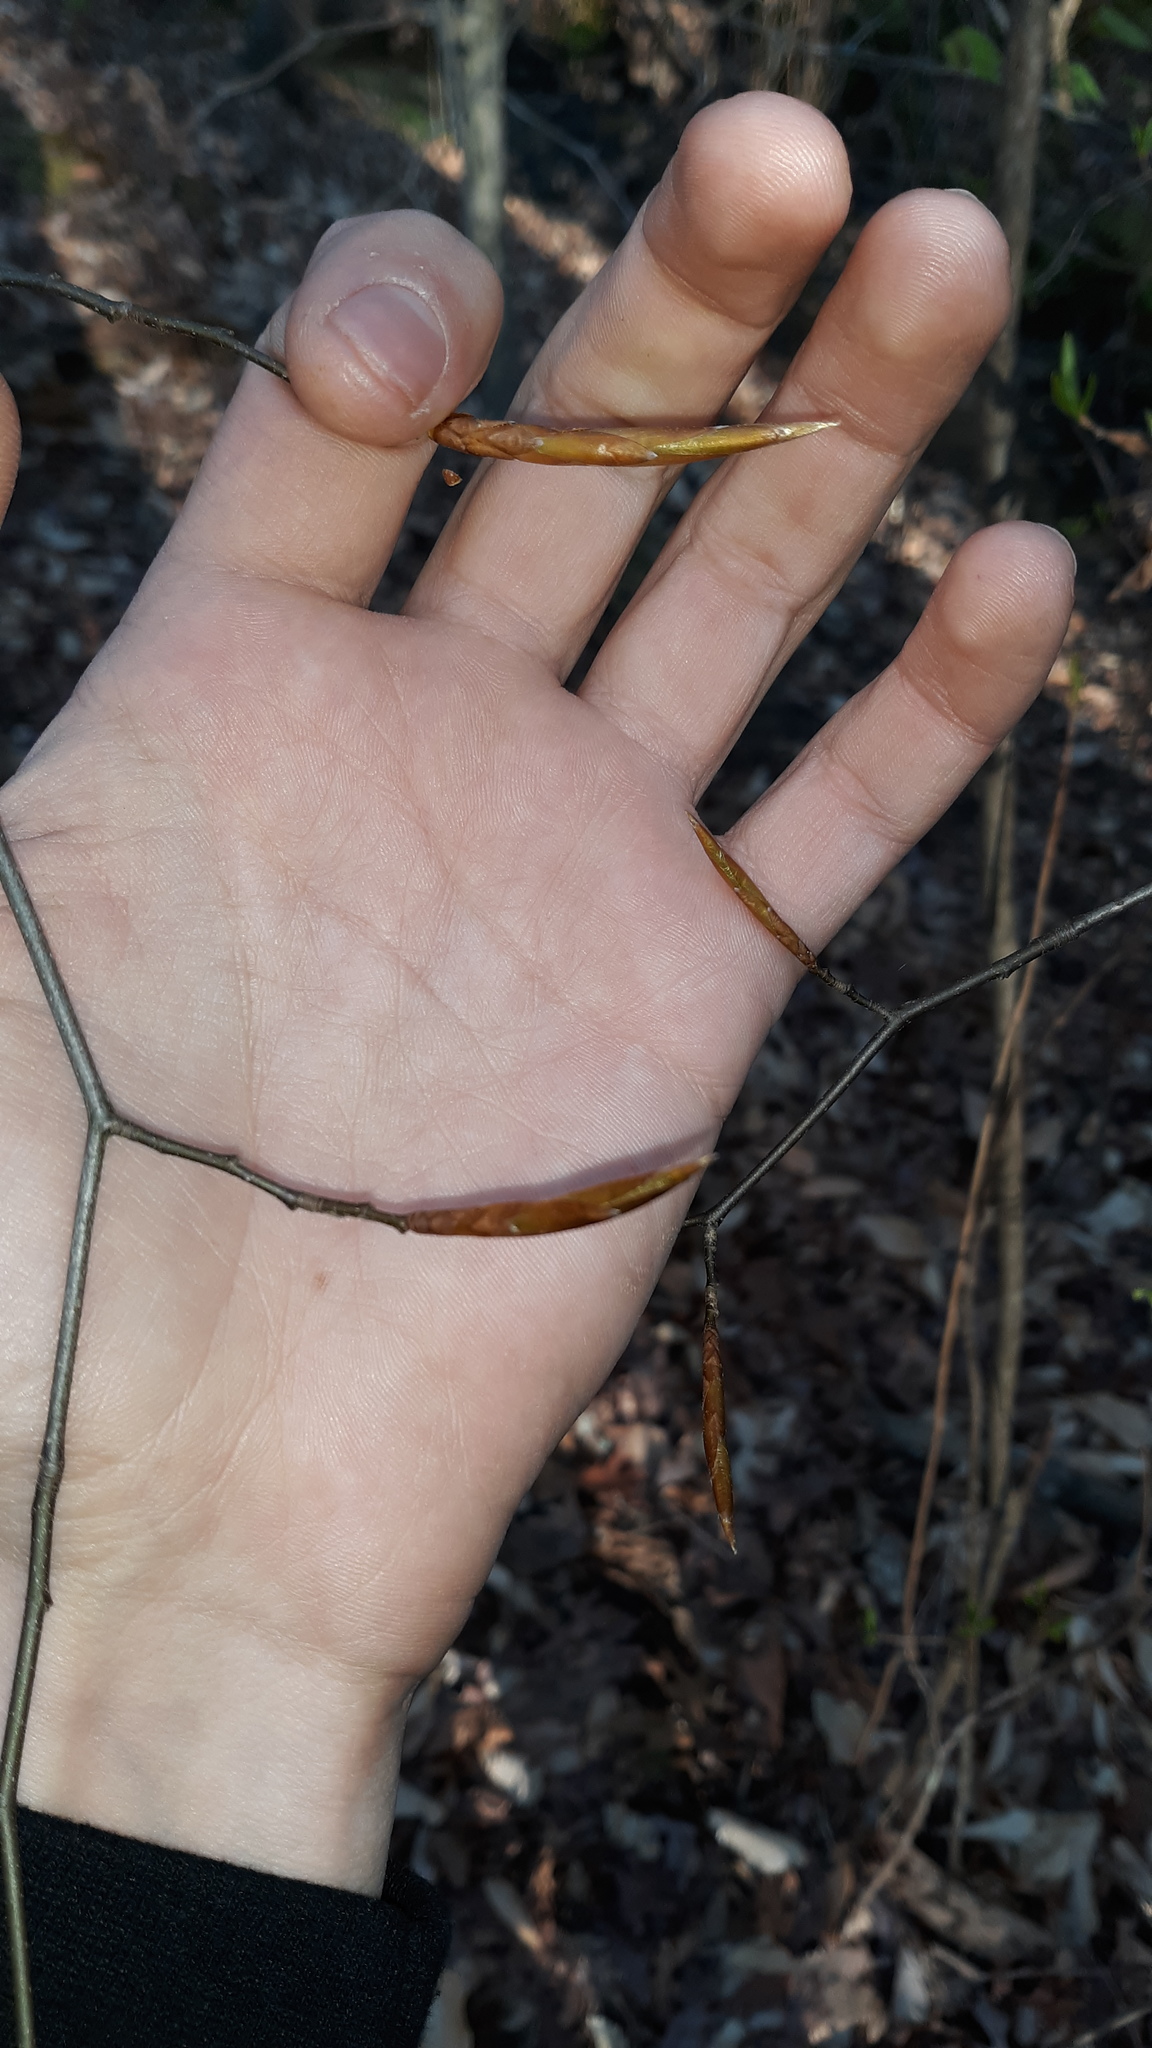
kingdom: Plantae
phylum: Tracheophyta
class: Magnoliopsida
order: Fagales
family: Fagaceae
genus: Fagus
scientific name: Fagus grandifolia
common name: American beech
